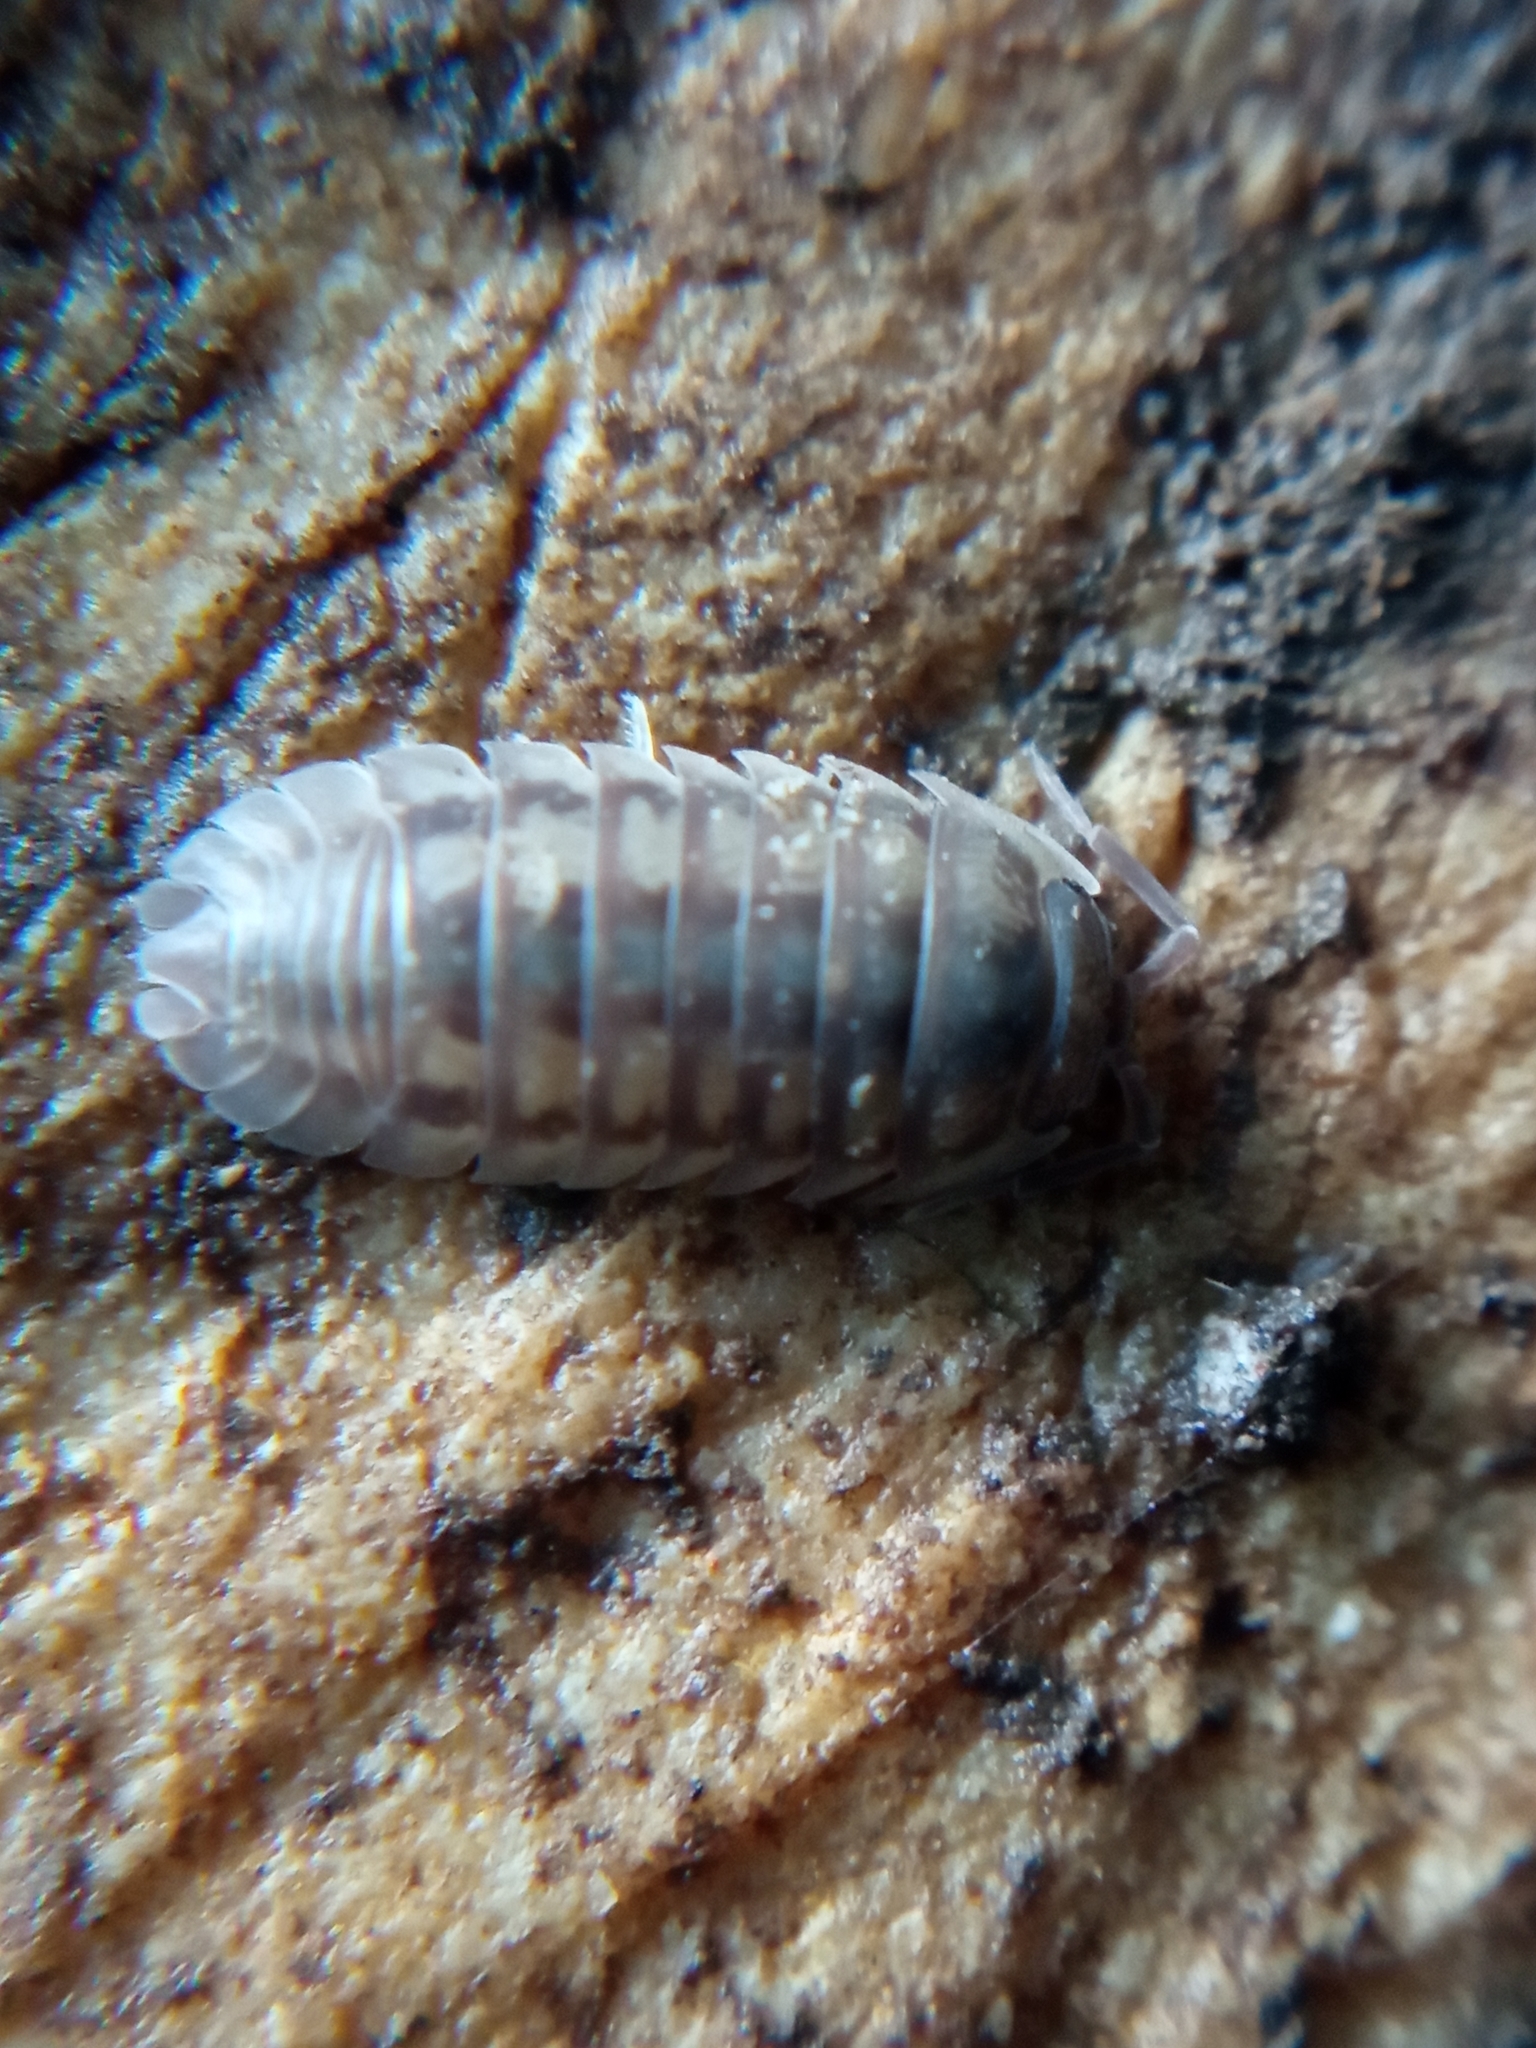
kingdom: Animalia
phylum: Arthropoda
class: Malacostraca
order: Isopoda
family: Armadillidiidae
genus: Armadillidium
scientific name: Armadillidium nasatum
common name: Isopod
